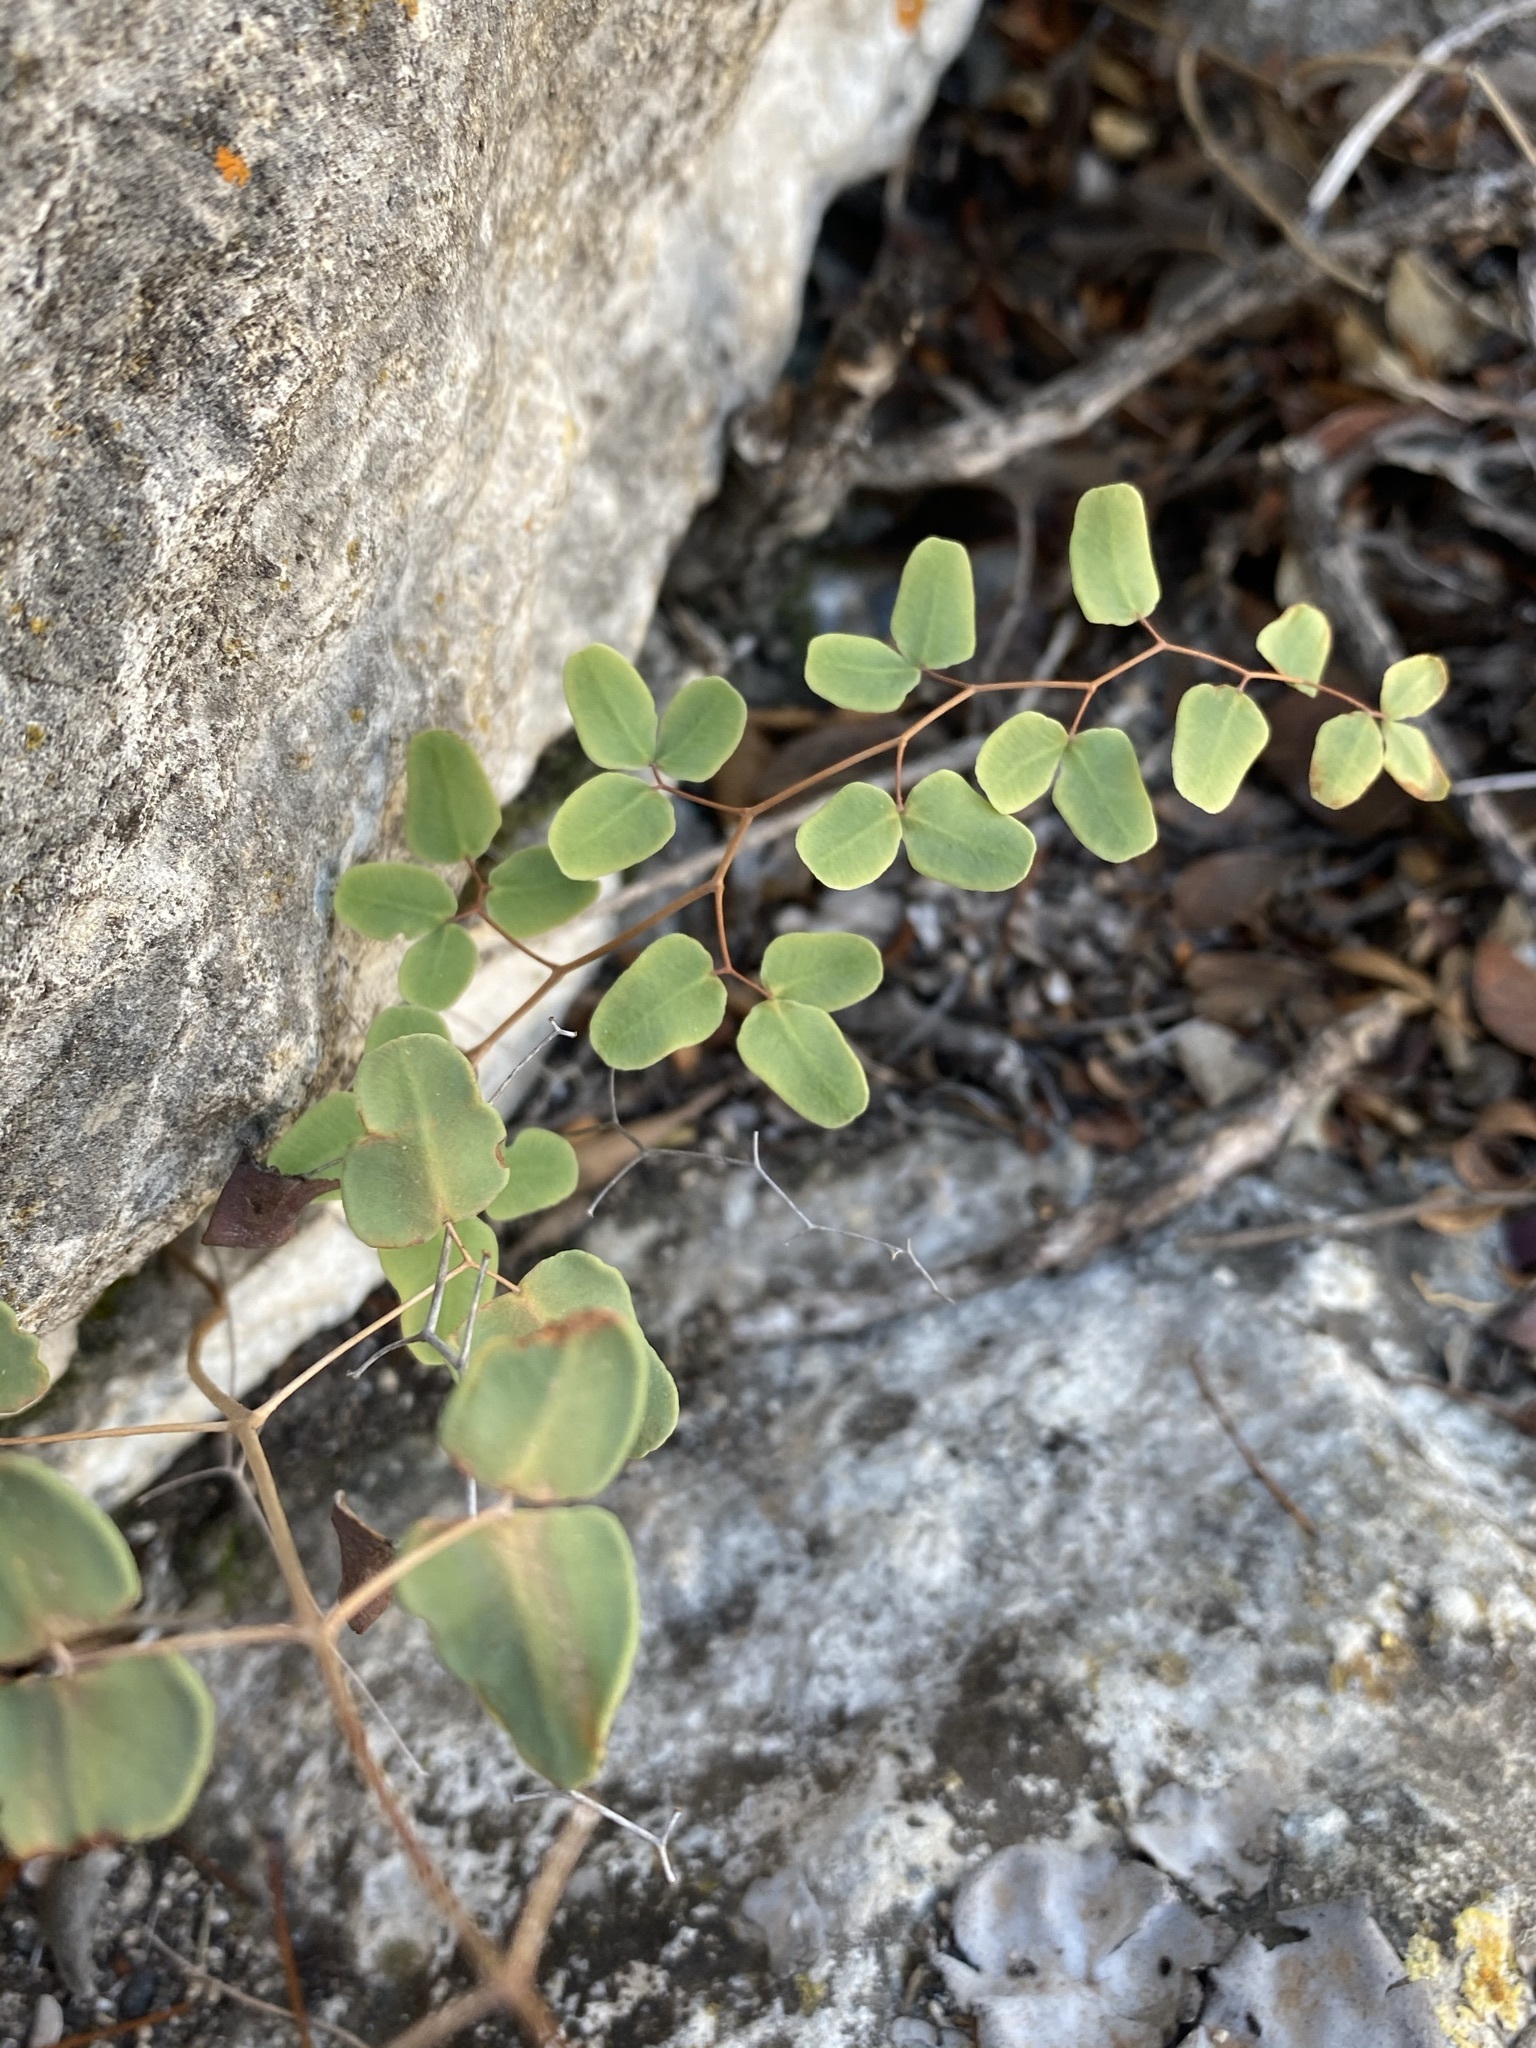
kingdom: Plantae
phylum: Tracheophyta
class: Polypodiopsida
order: Polypodiales
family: Pteridaceae
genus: Pellaea
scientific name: Pellaea ovata
